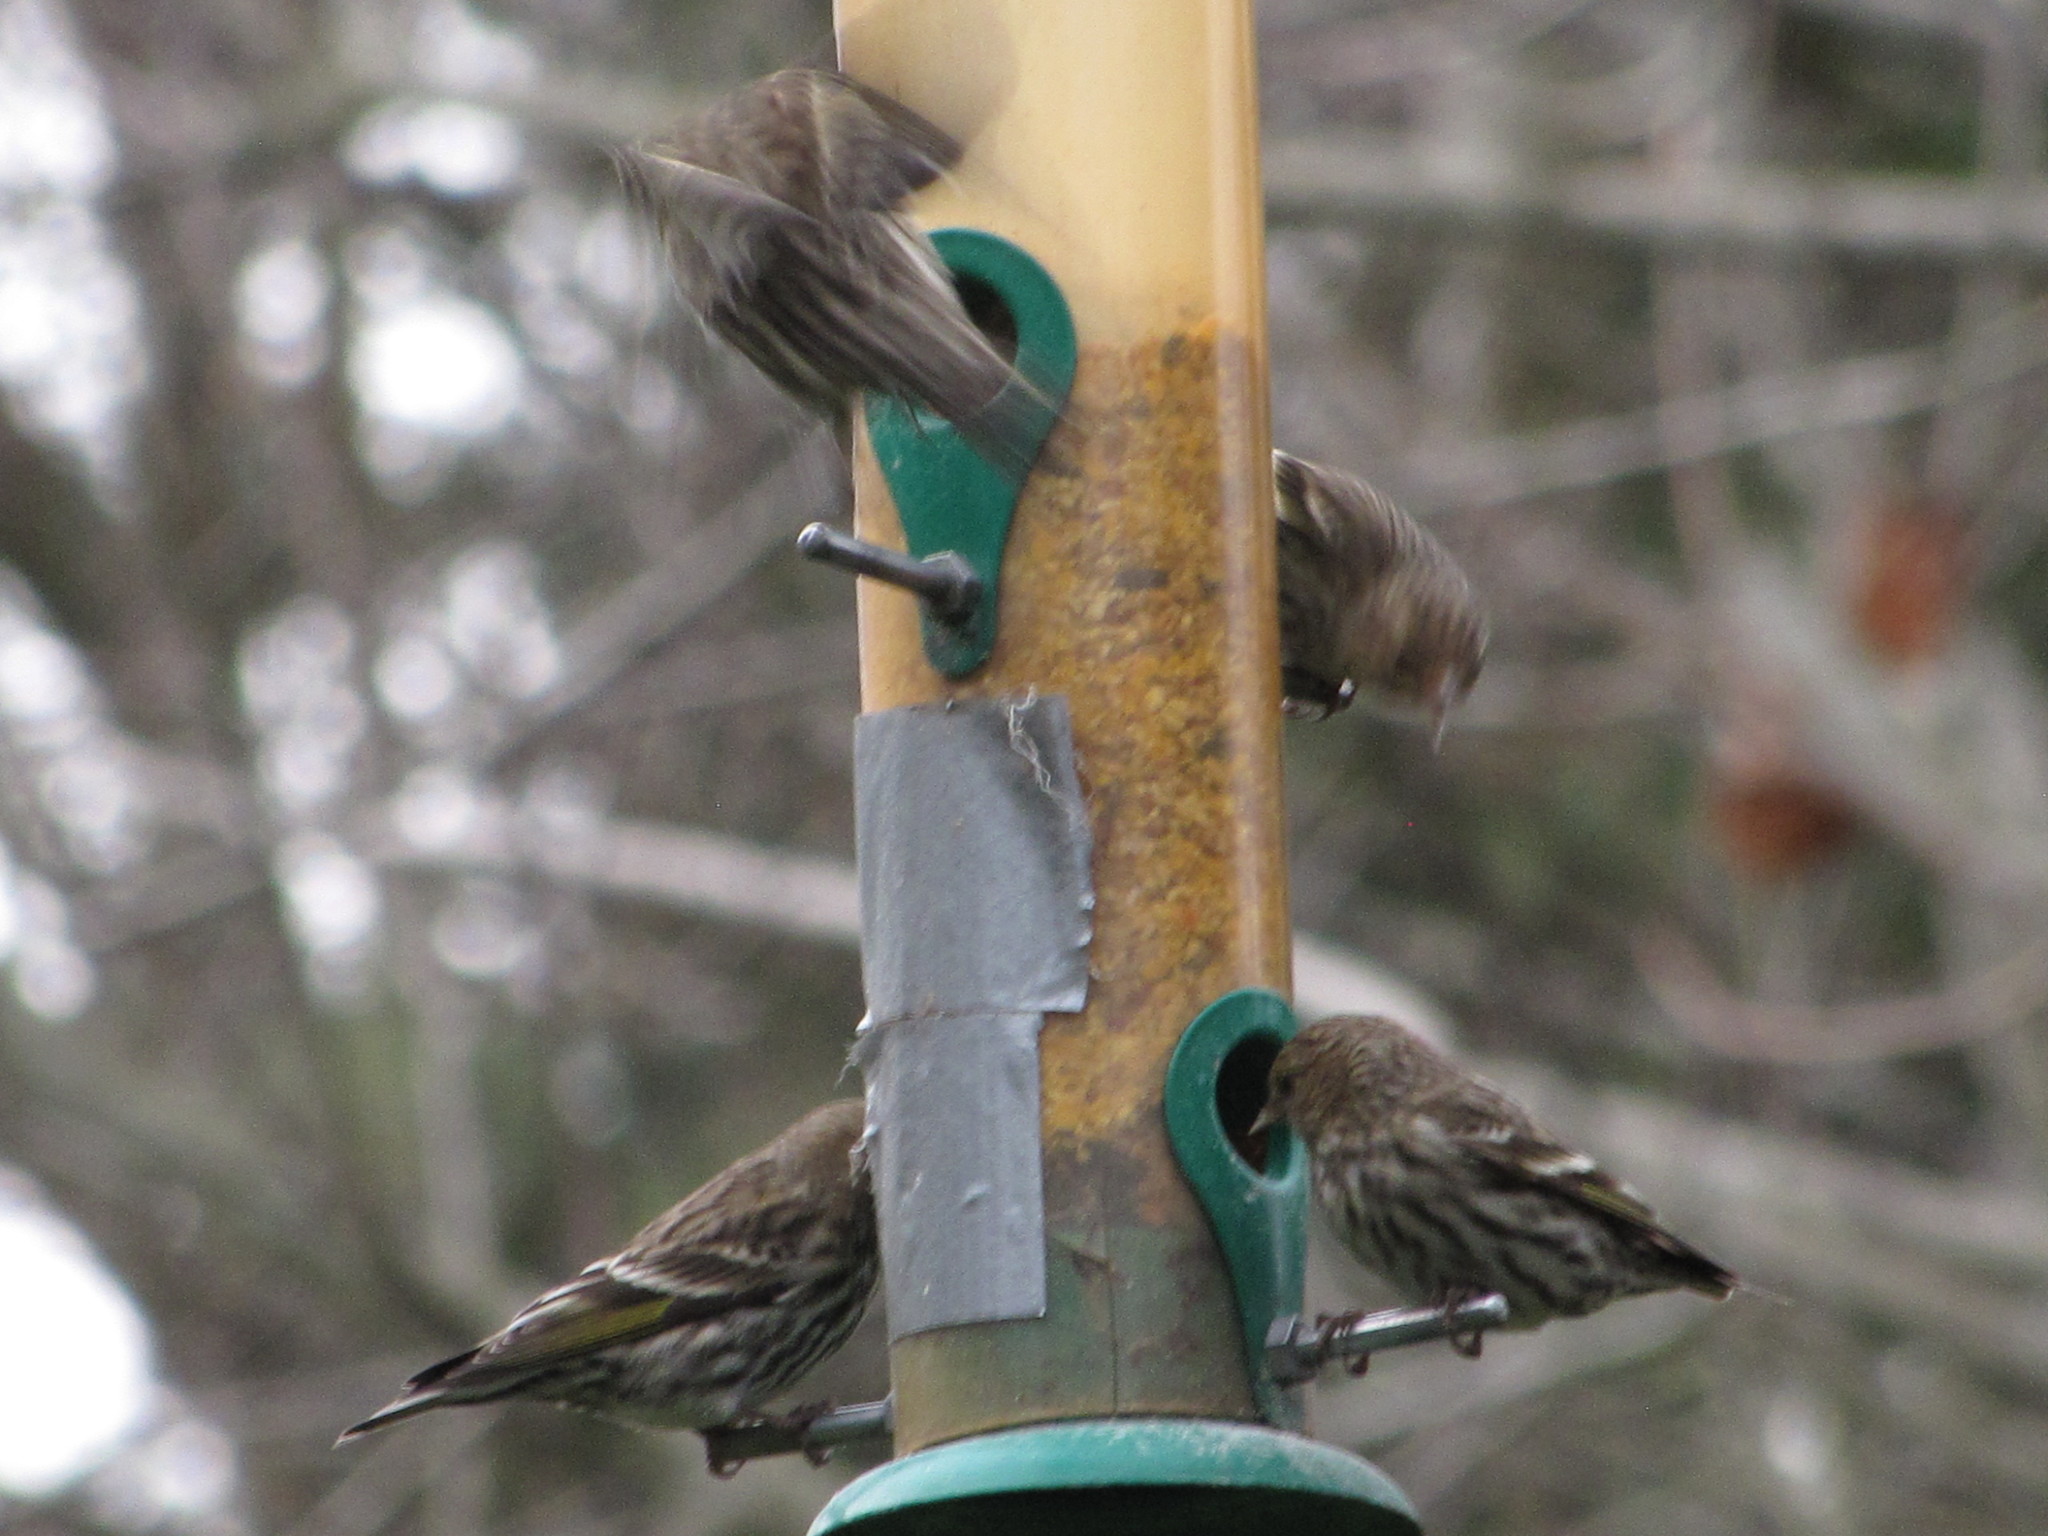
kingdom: Animalia
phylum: Chordata
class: Aves
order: Passeriformes
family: Fringillidae
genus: Spinus
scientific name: Spinus pinus
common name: Pine siskin
